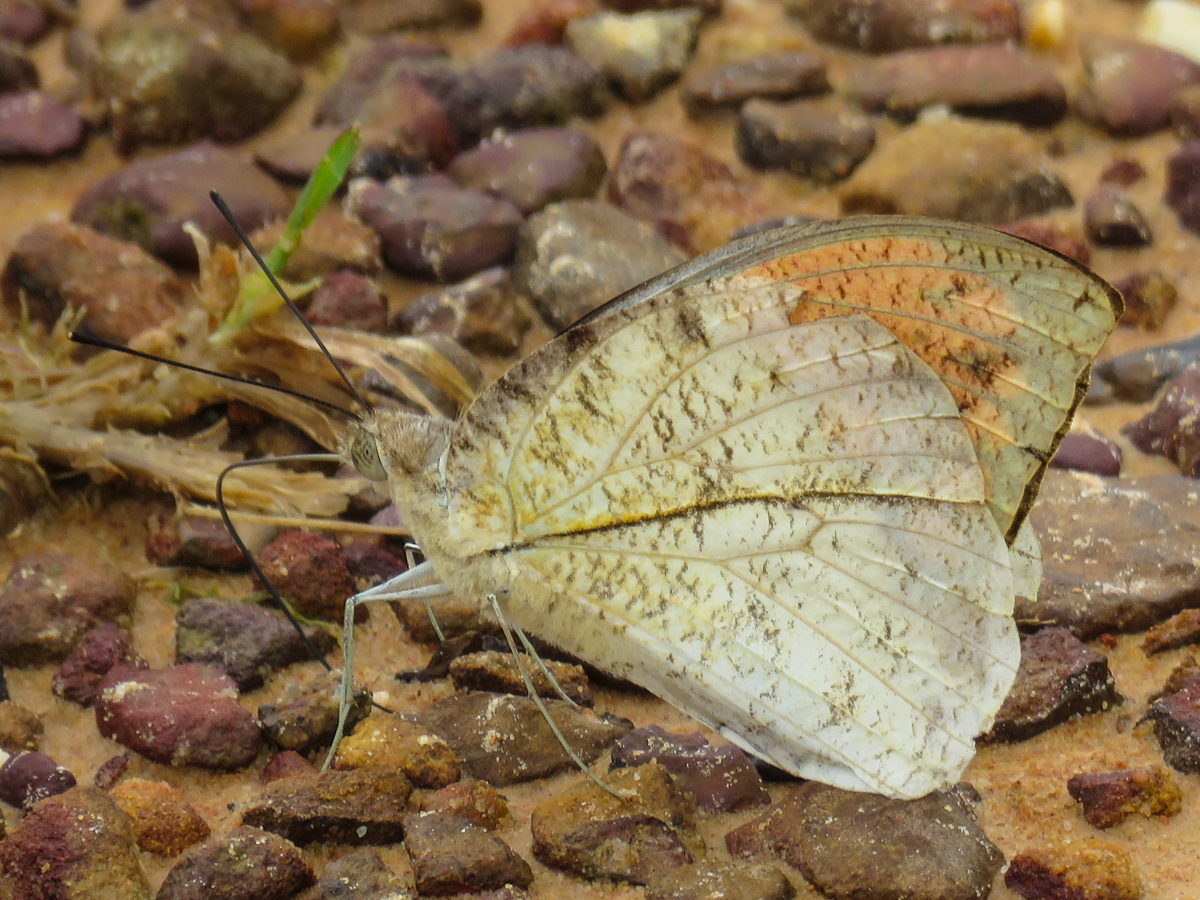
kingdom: Animalia
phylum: Arthropoda
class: Insecta
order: Lepidoptera
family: Pieridae
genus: Hebomoia
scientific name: Hebomoia glaucippe
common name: Great orange tip
